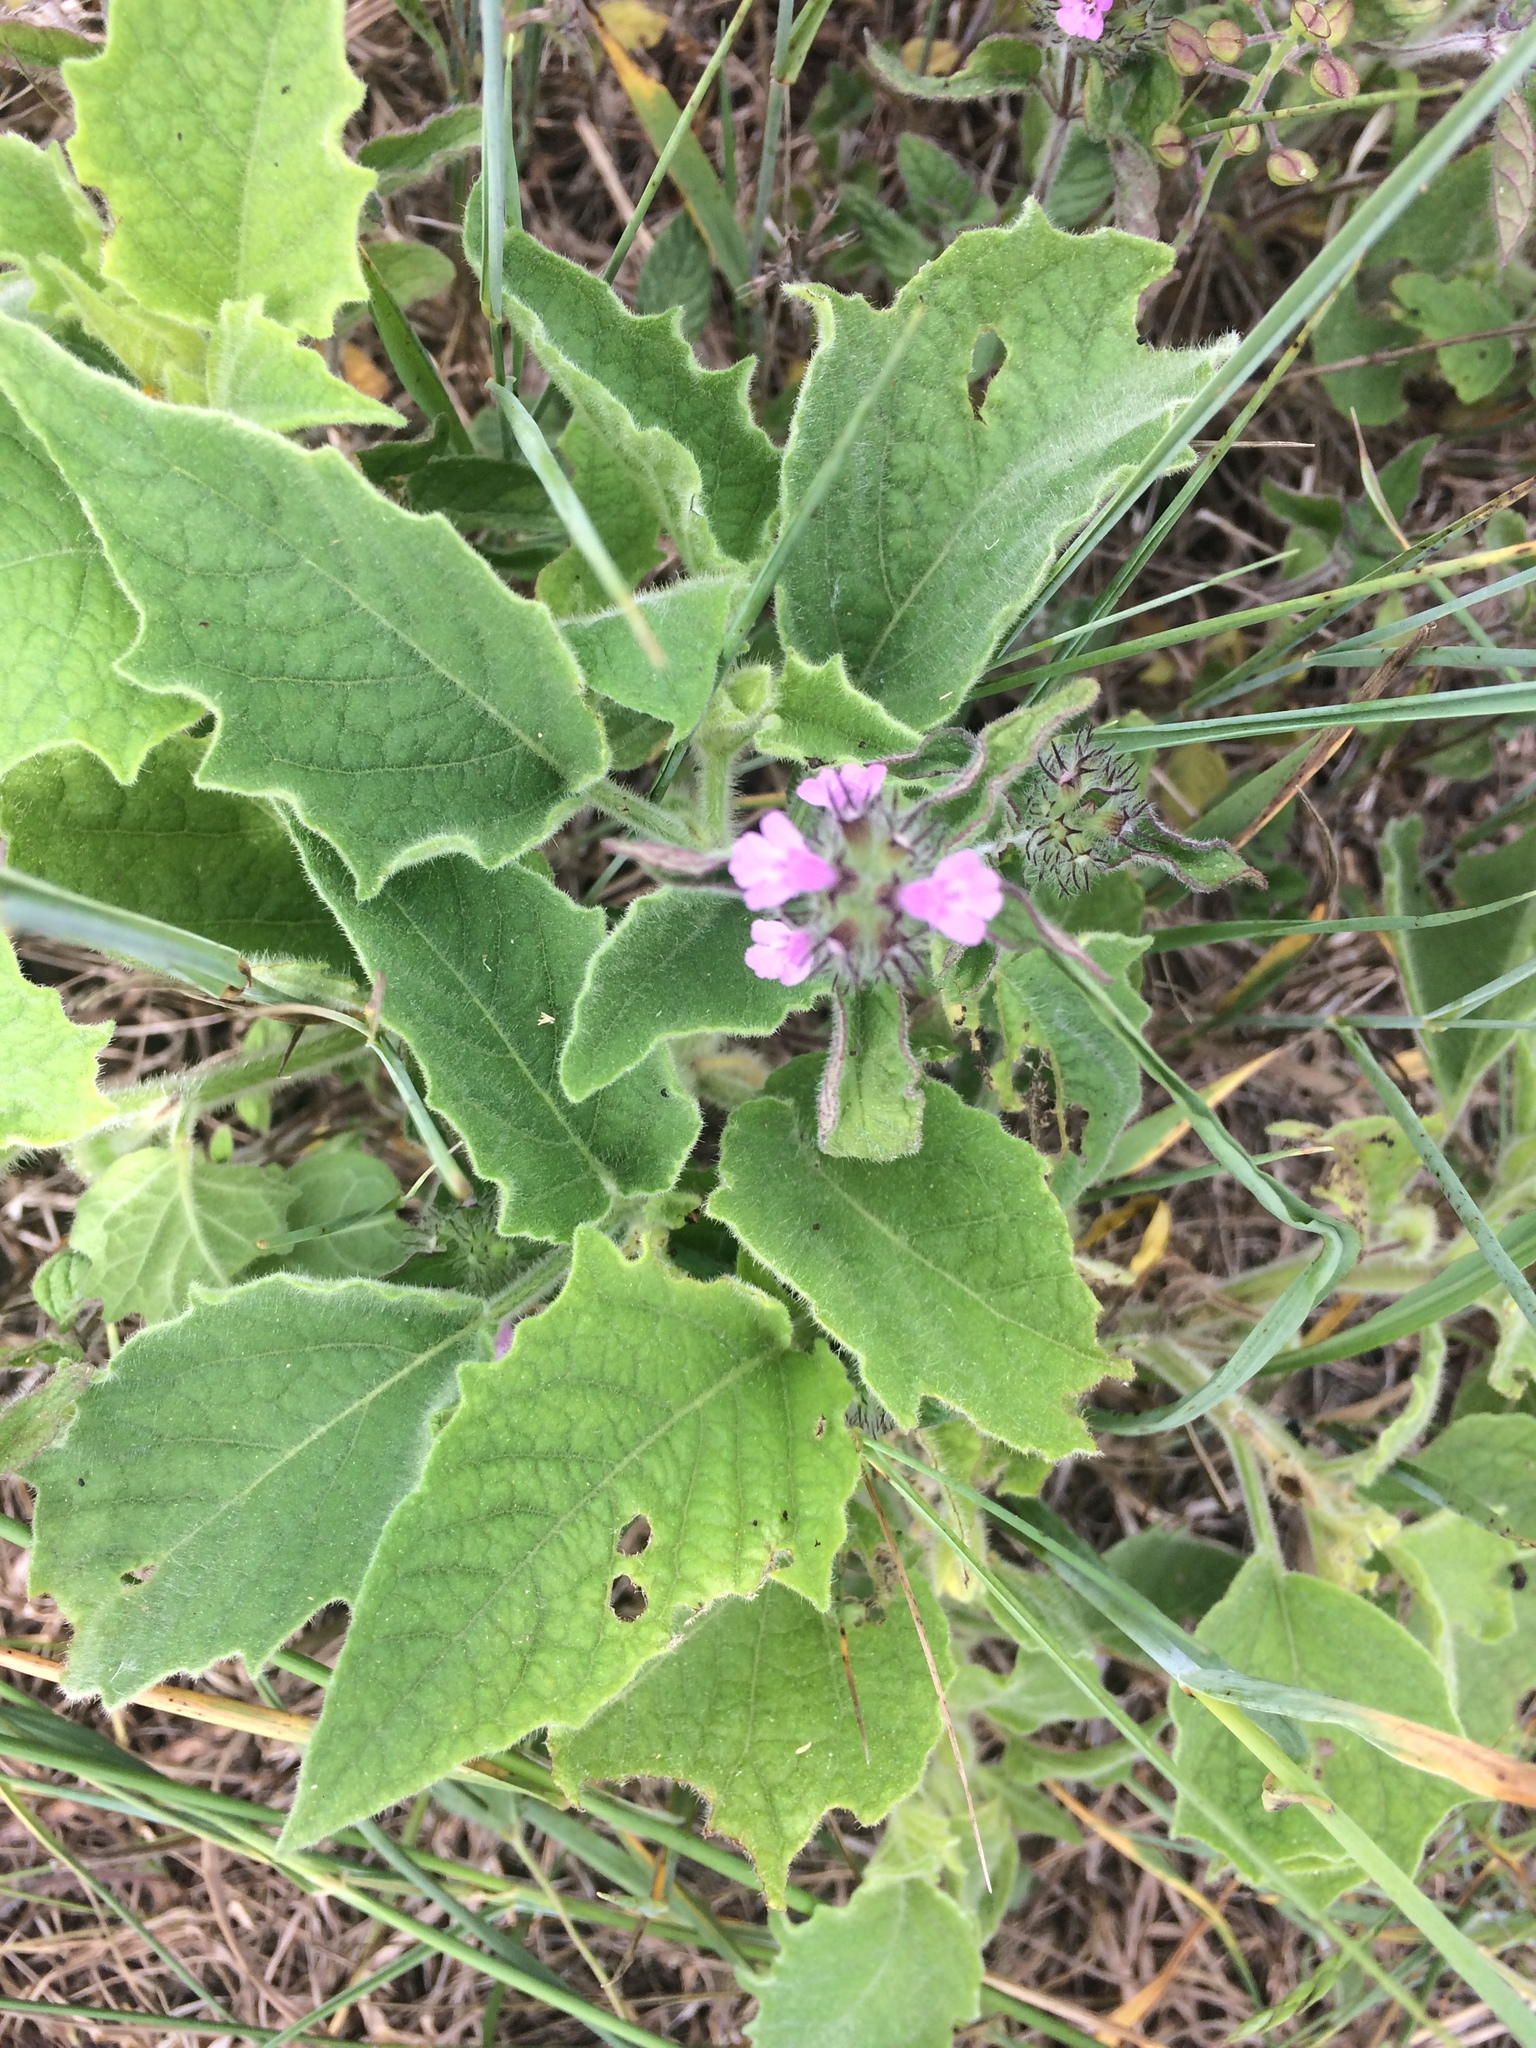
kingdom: Plantae
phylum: Tracheophyta
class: Magnoliopsida
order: Solanales
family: Solanaceae
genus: Physalis
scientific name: Physalis heterophylla
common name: Clammy ground-cherry
